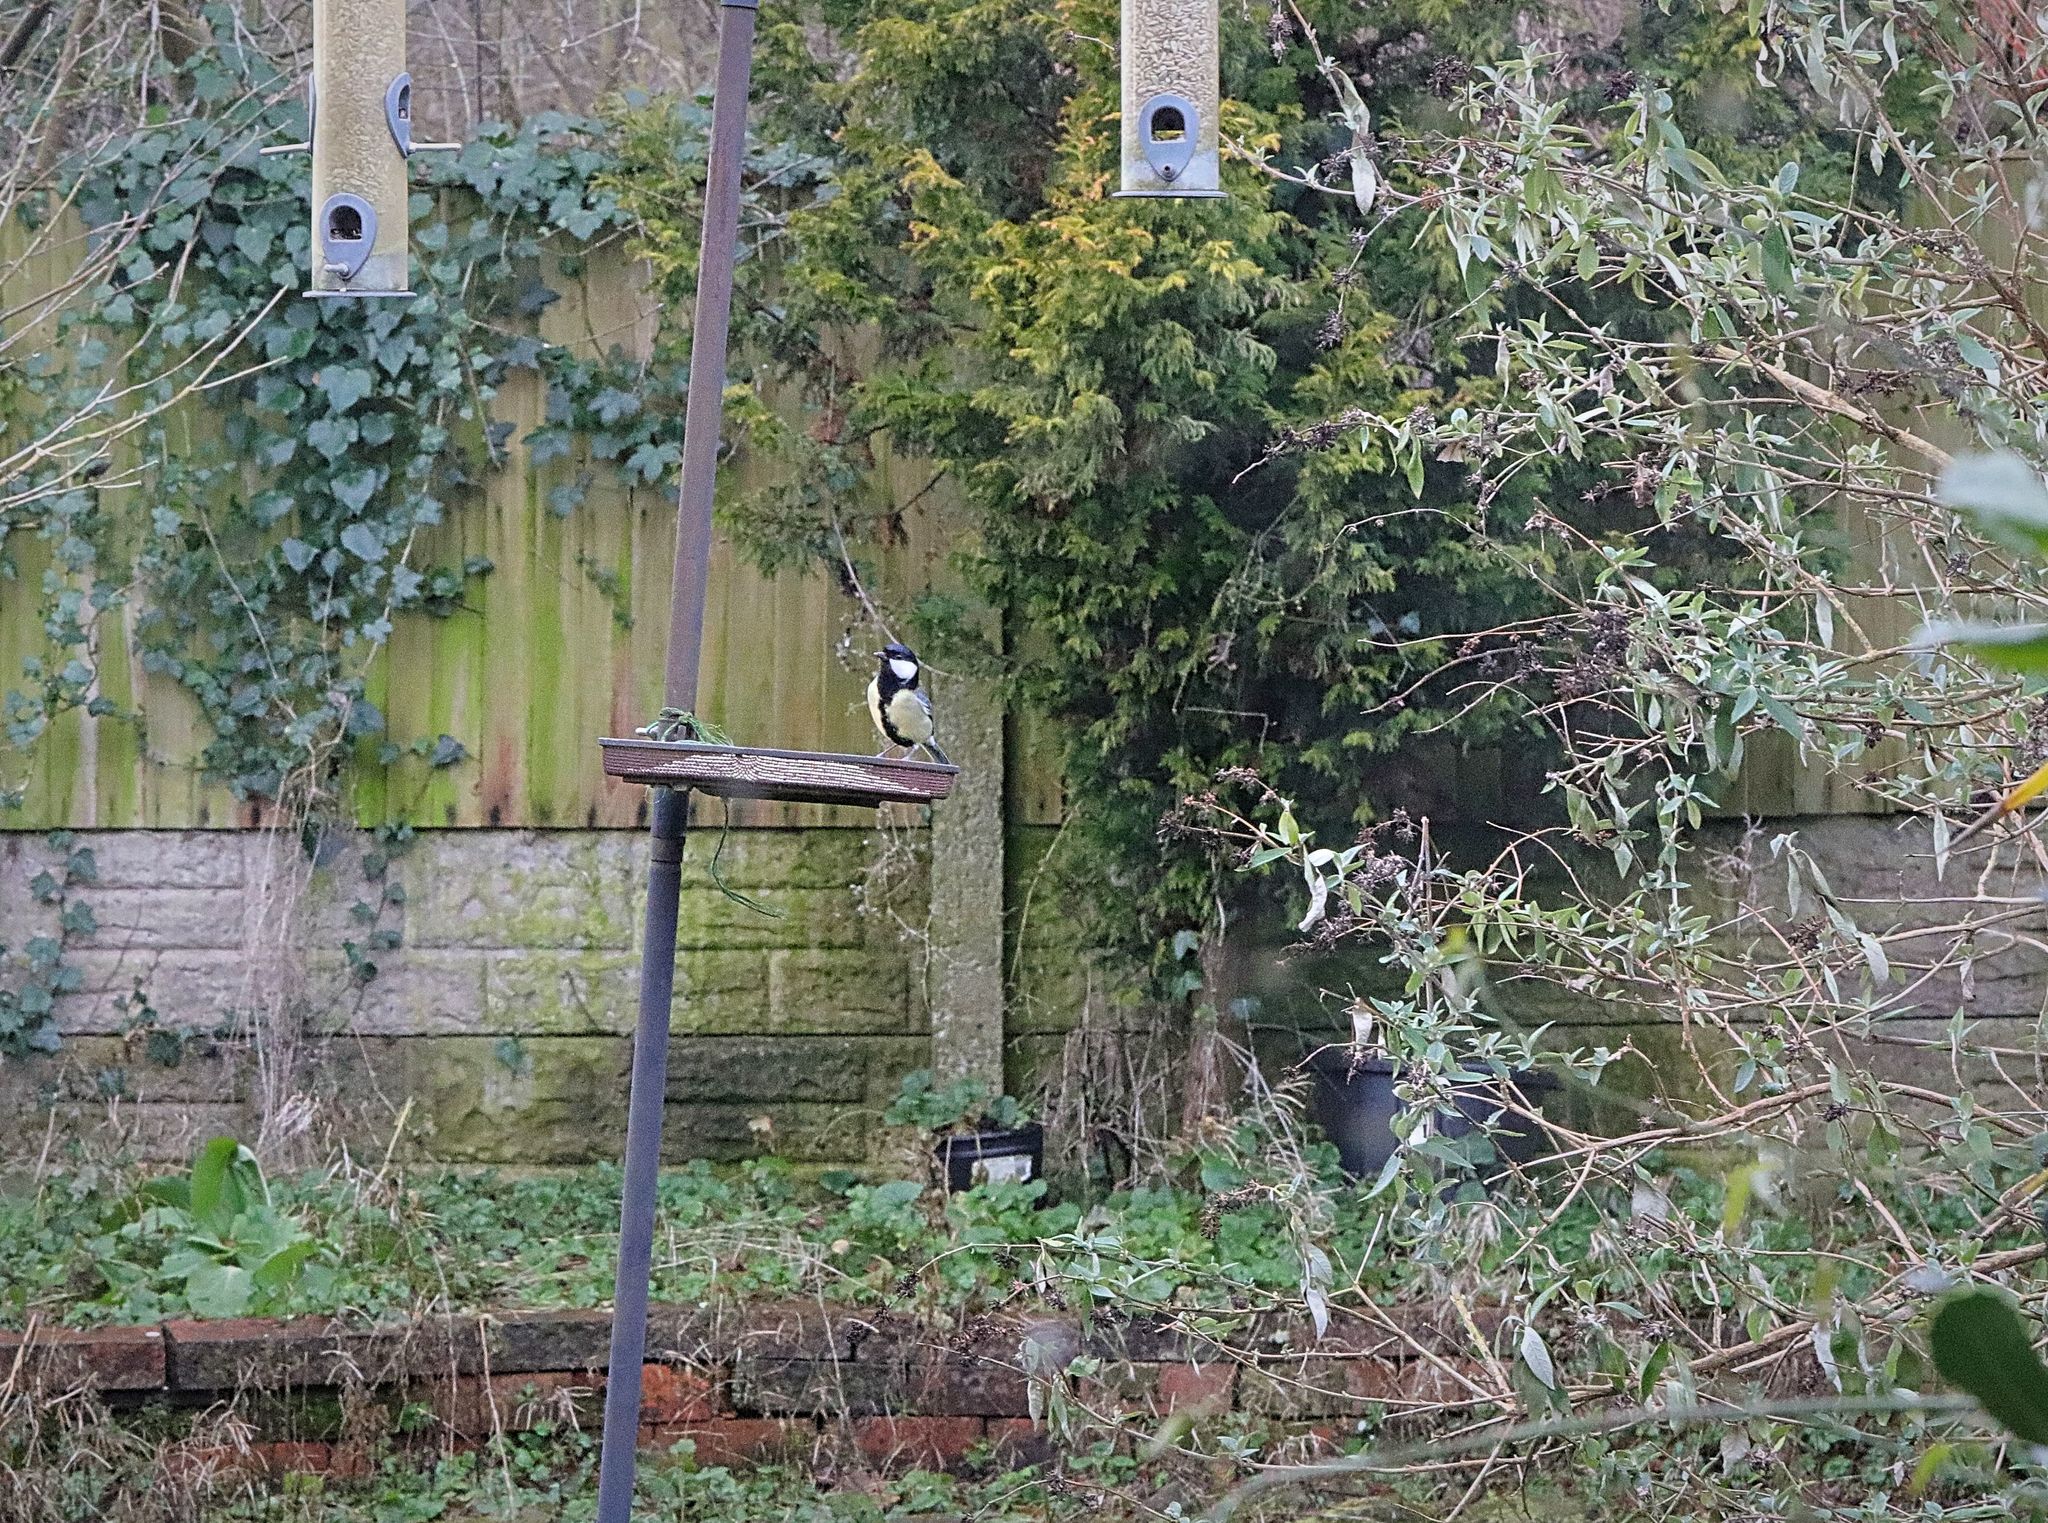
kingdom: Animalia
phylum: Chordata
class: Aves
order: Passeriformes
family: Paridae
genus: Parus
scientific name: Parus major
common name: Great tit
